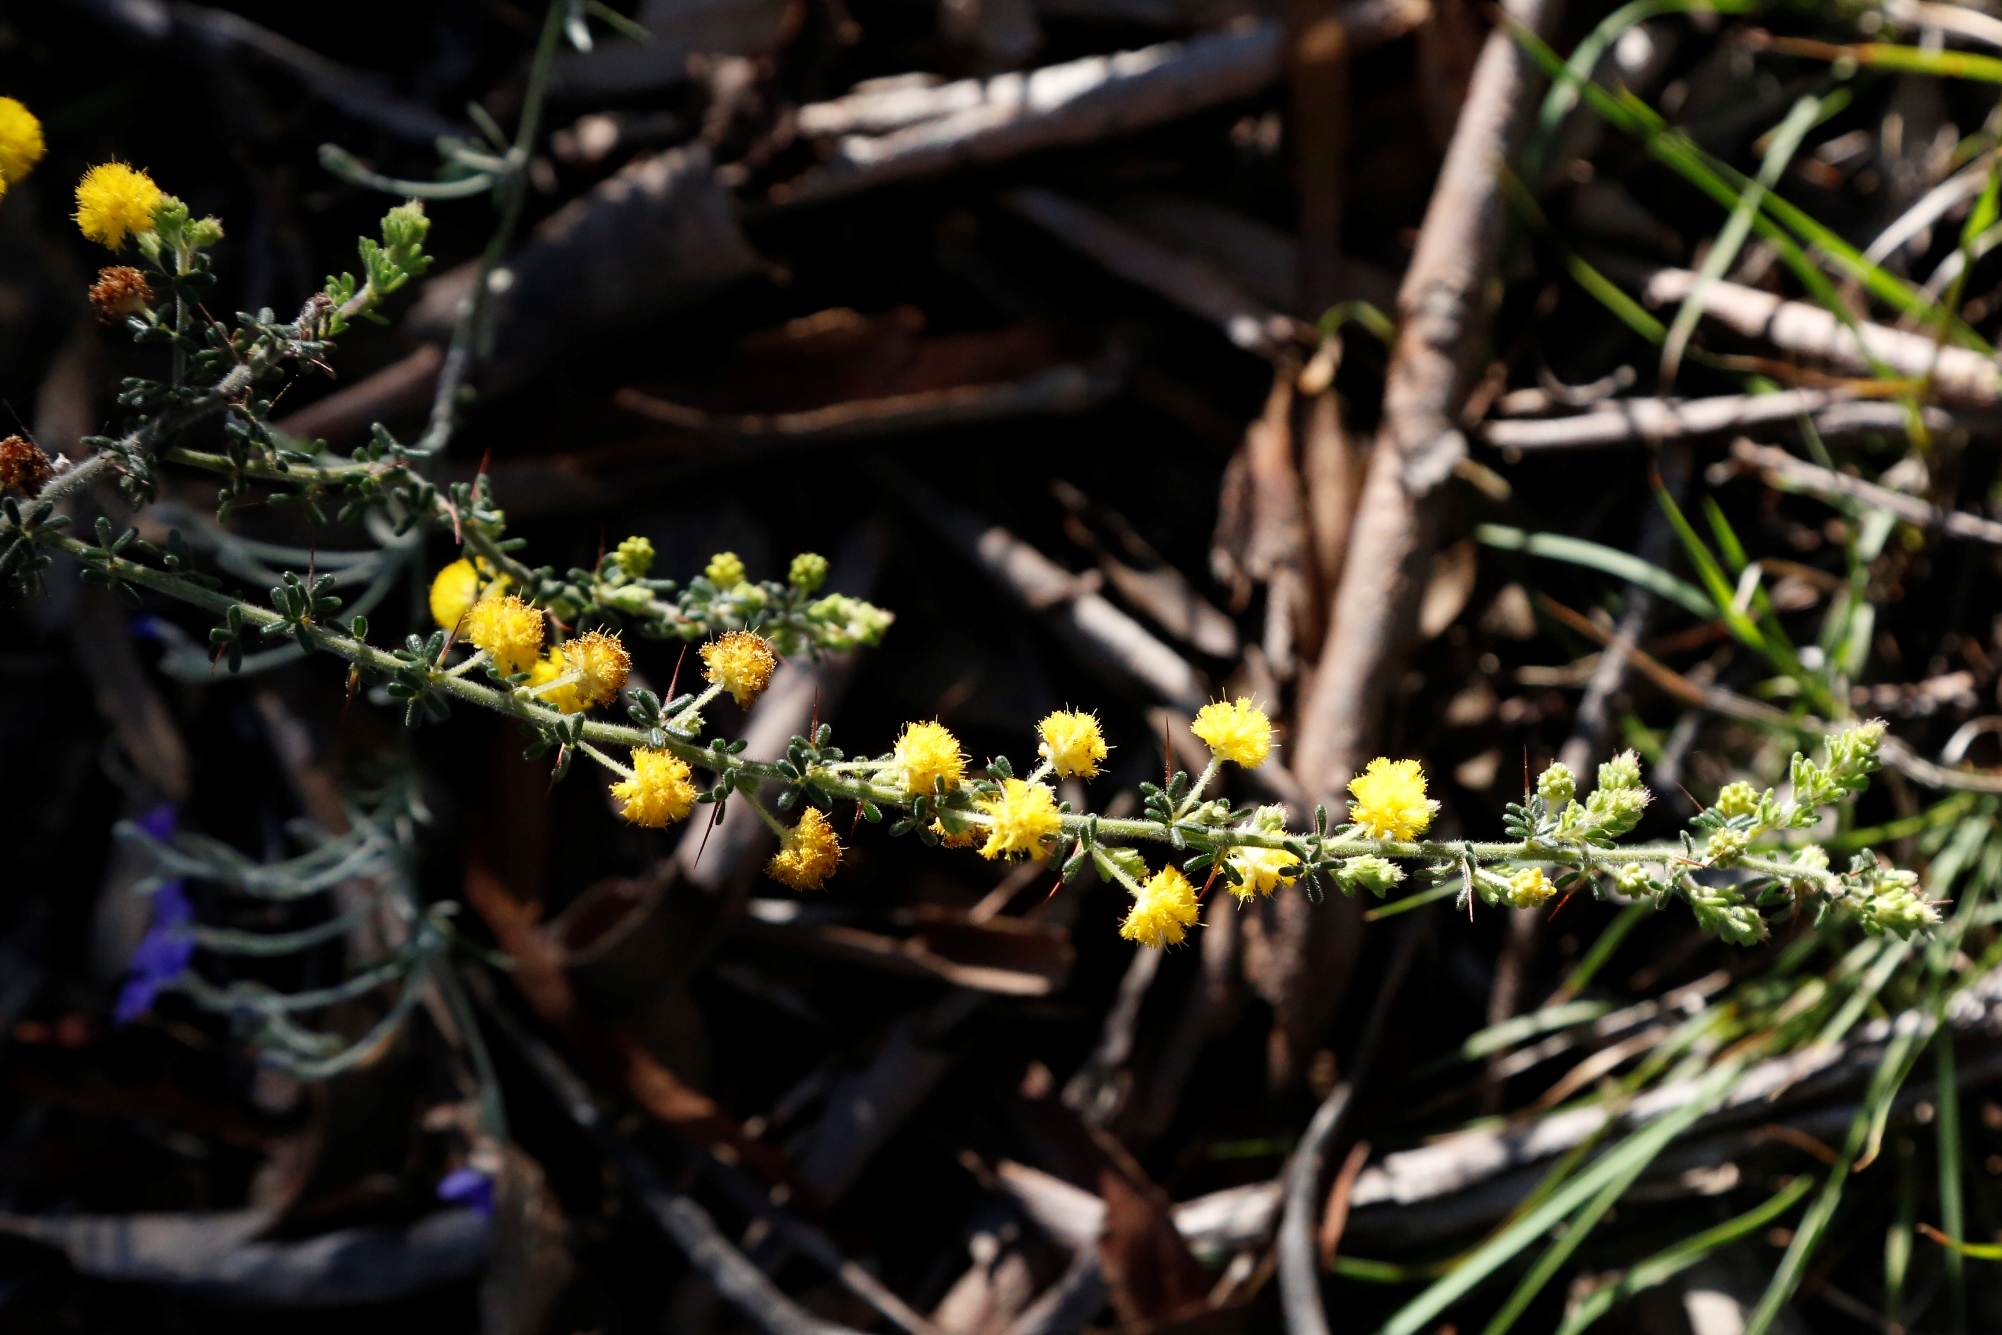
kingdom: Plantae
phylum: Tracheophyta
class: Magnoliopsida
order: Fabales
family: Fabaceae
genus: Acacia
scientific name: Acacia lasiocarpa
